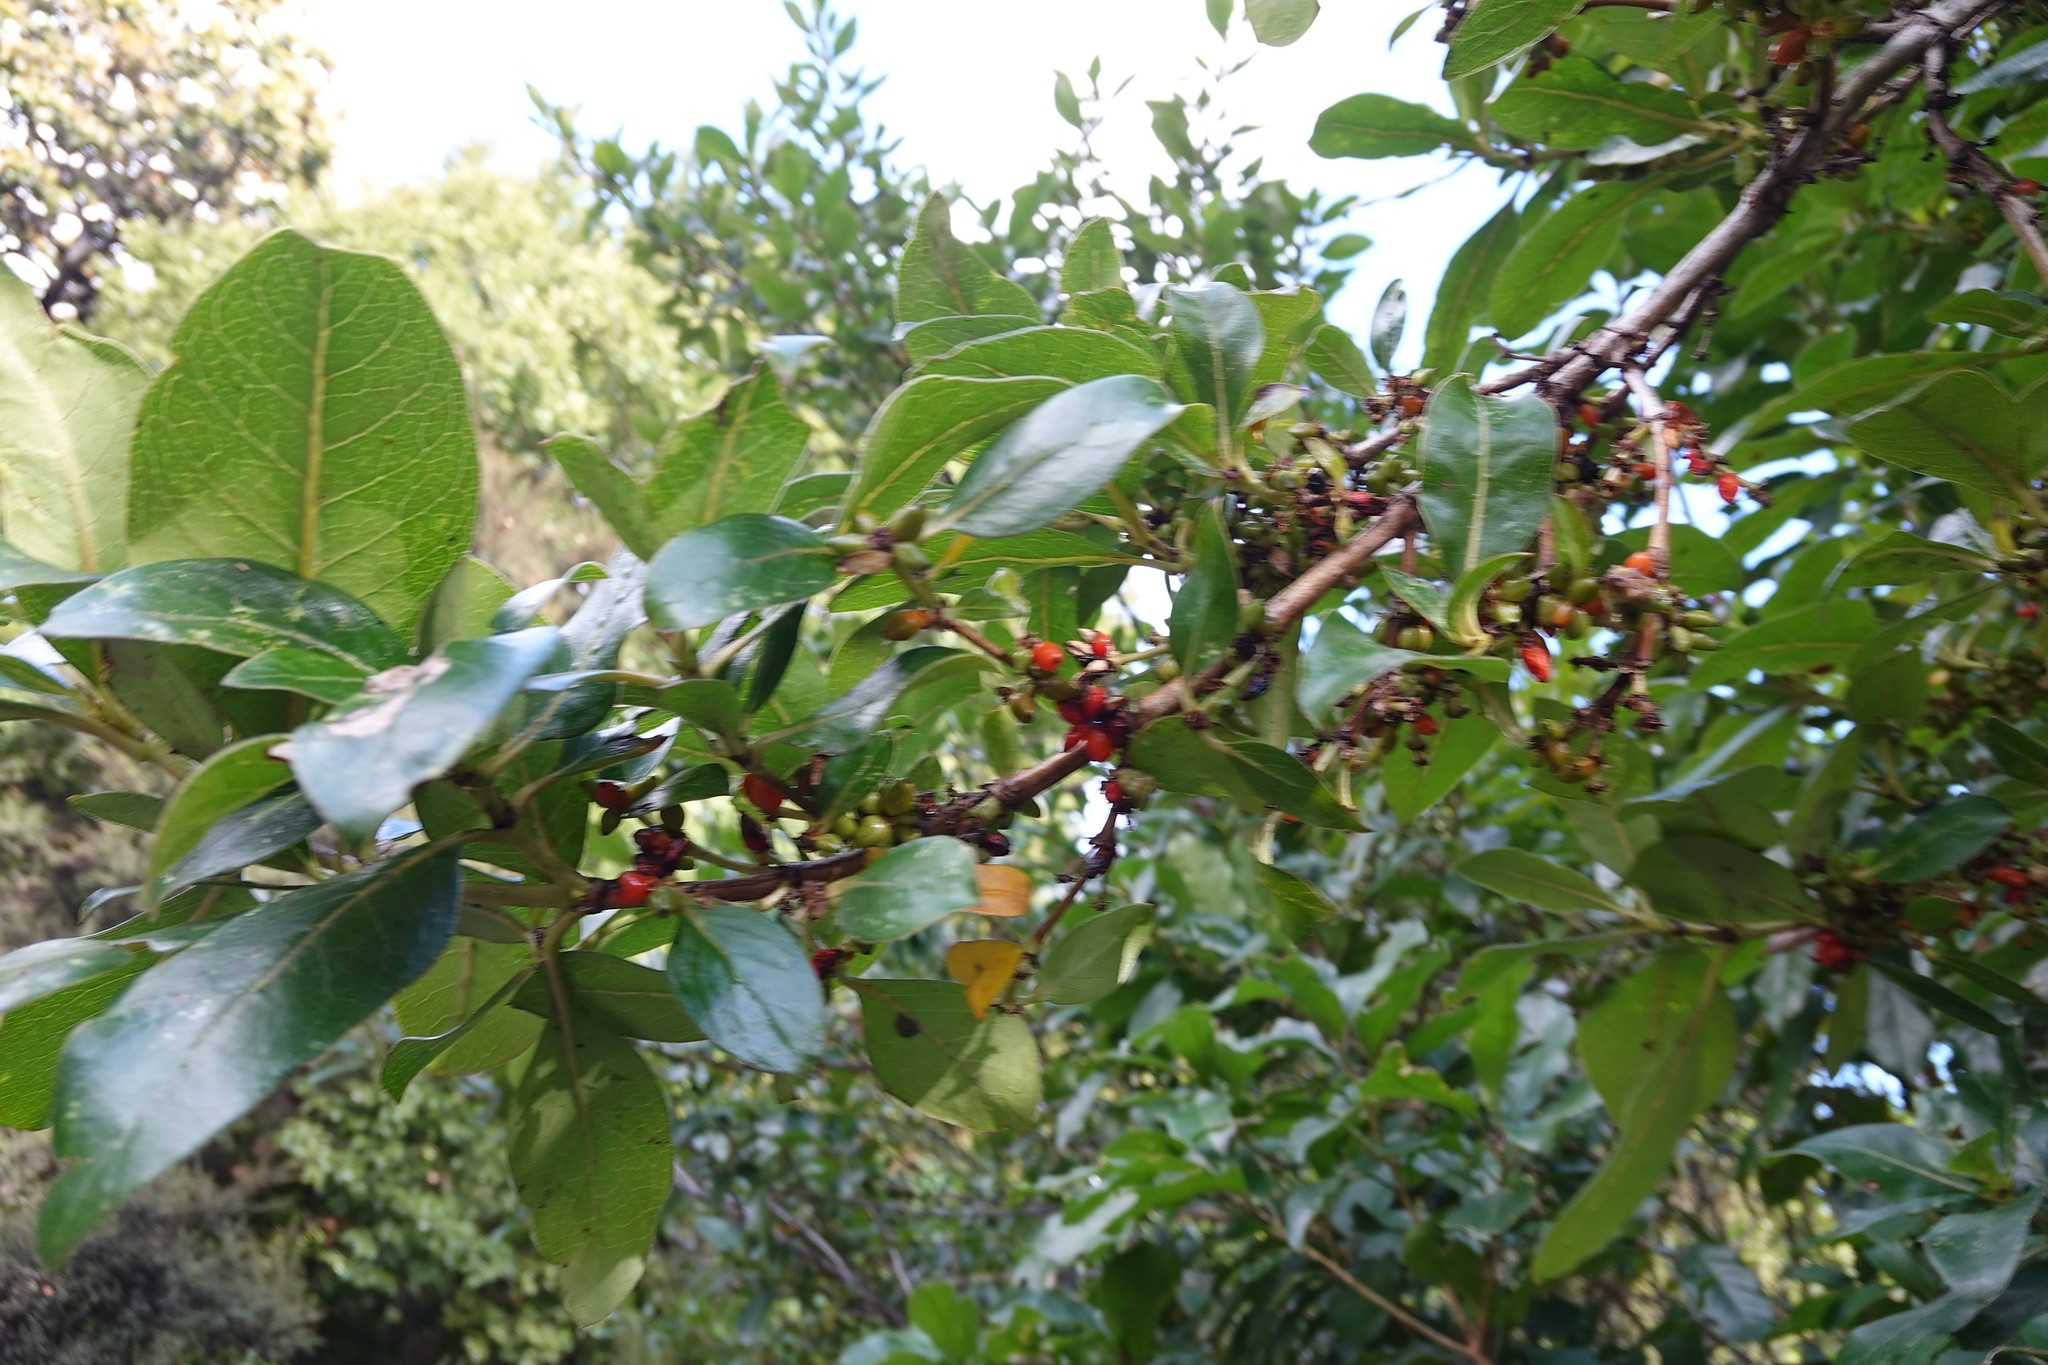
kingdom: Plantae
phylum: Tracheophyta
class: Magnoliopsida
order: Gentianales
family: Rubiaceae
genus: Coprosma
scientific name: Coprosma robusta
